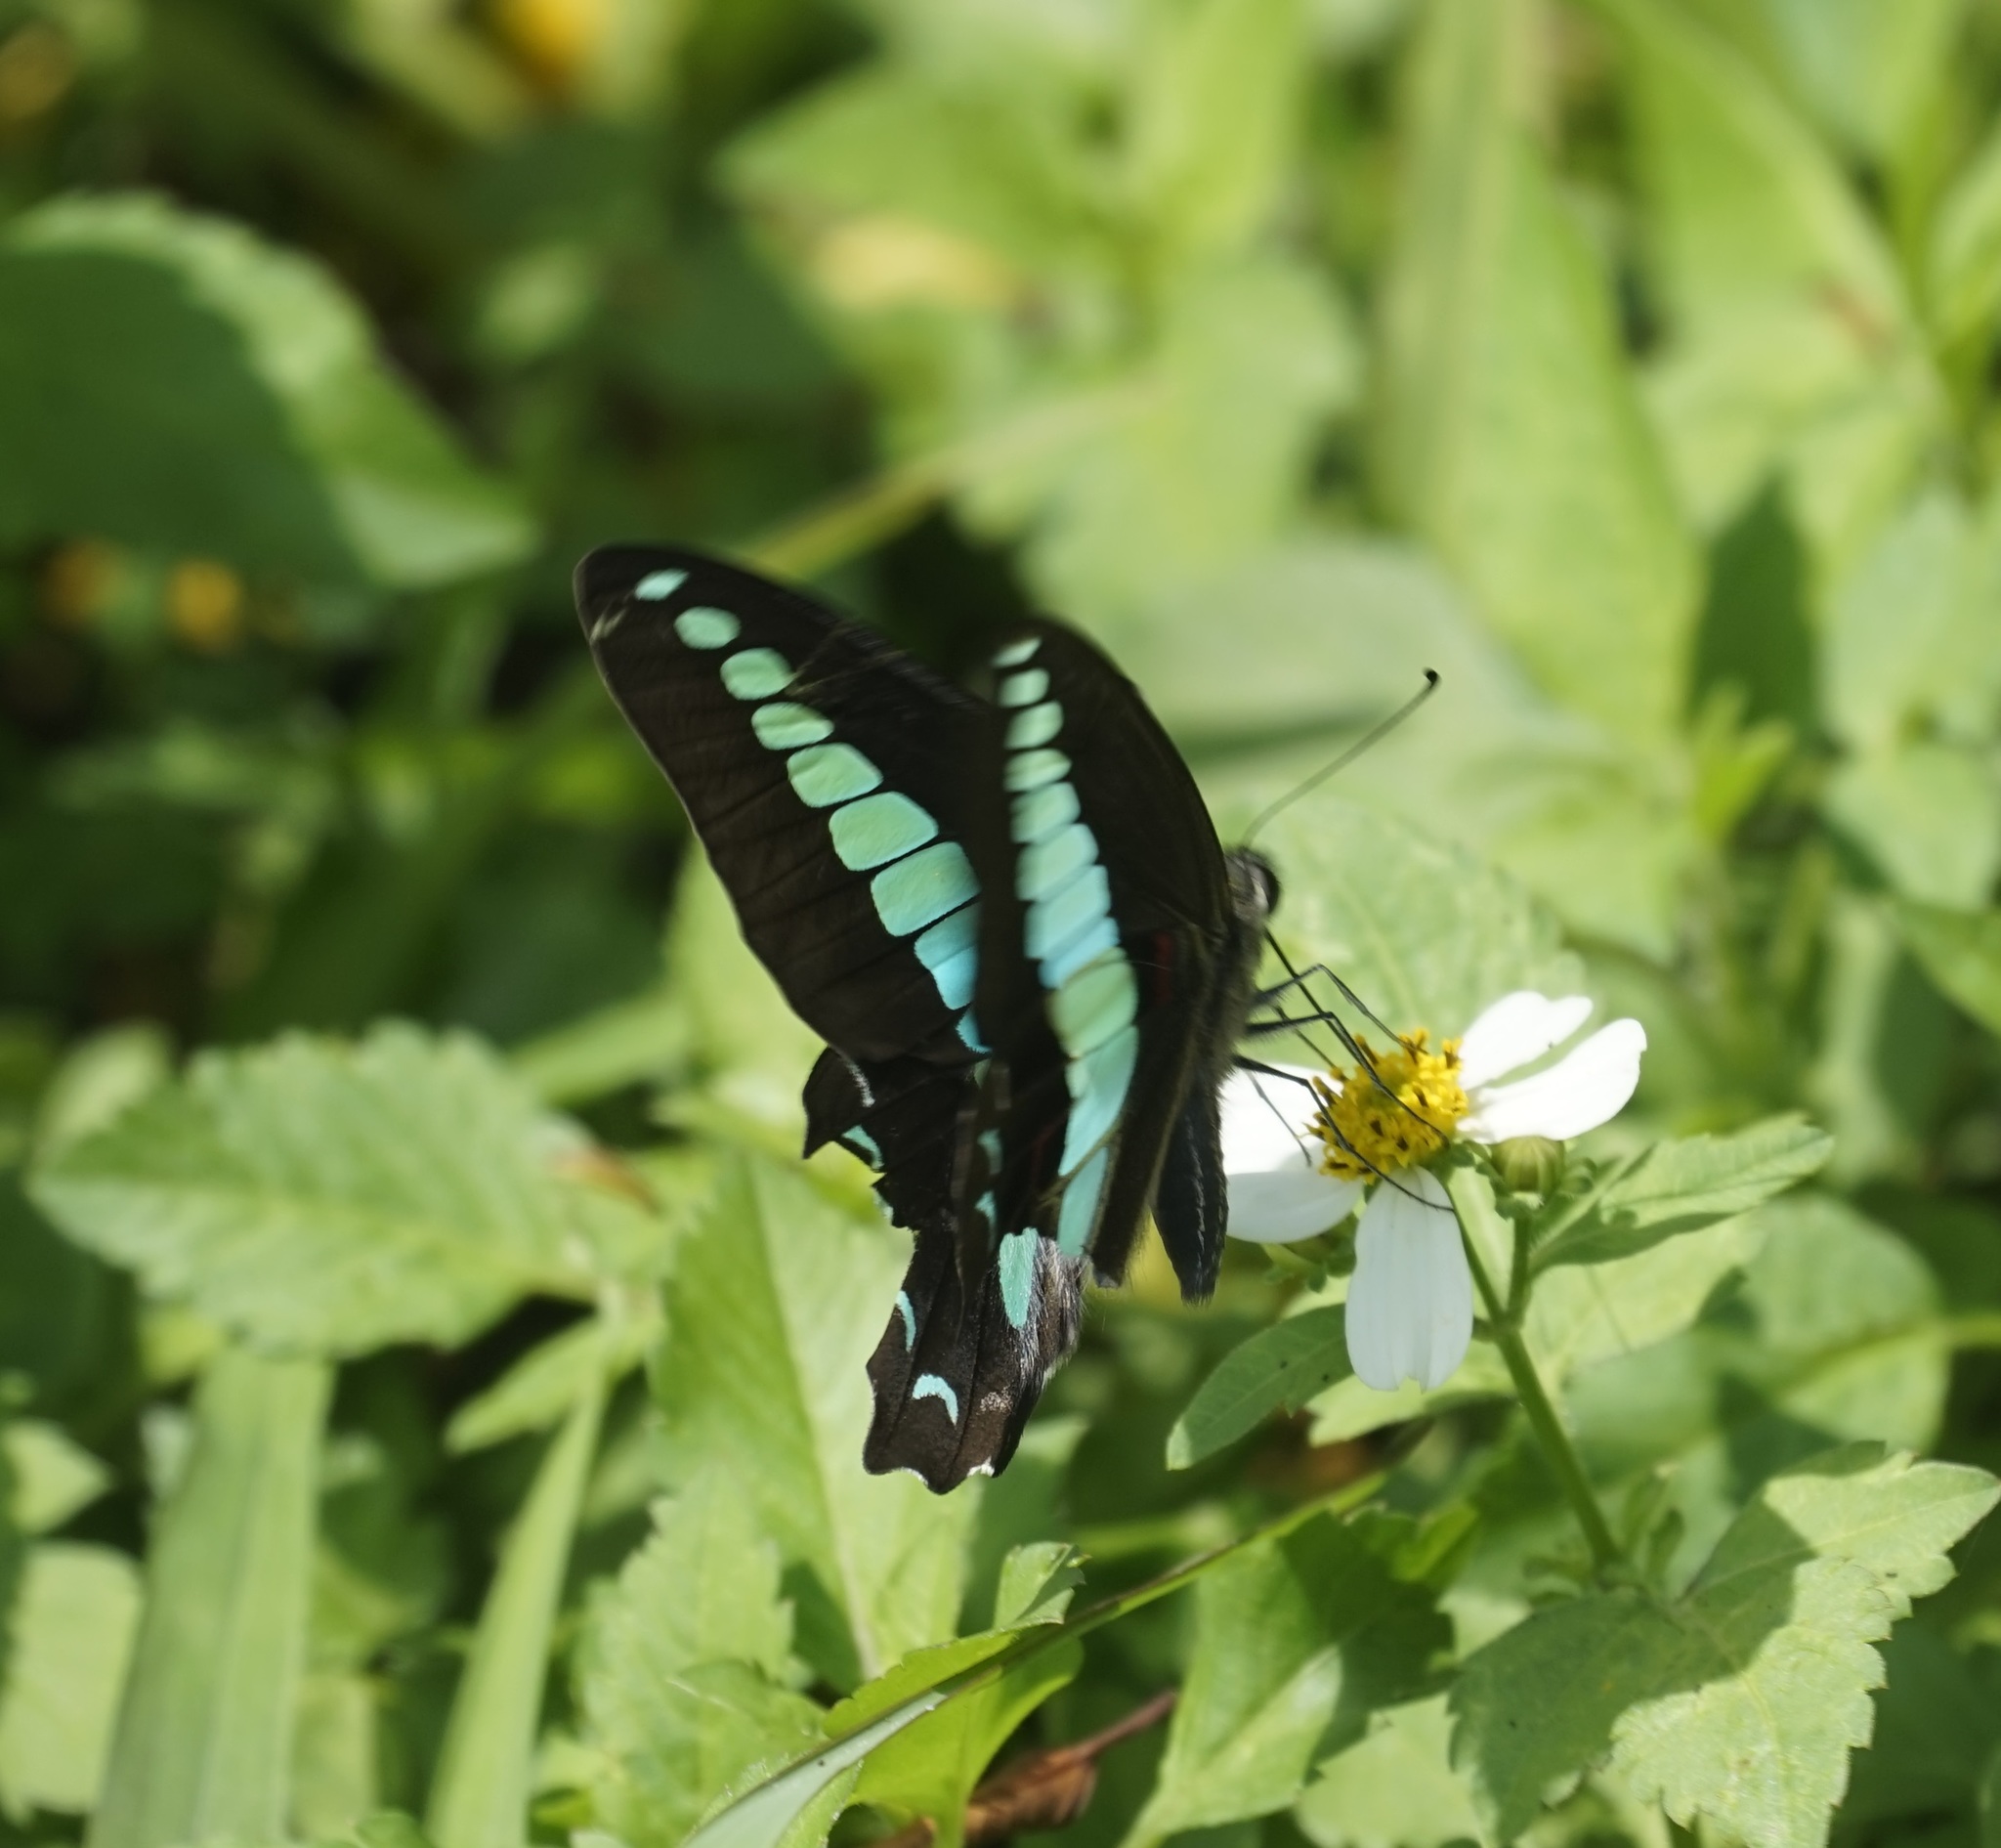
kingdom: Fungi
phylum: Ascomycota
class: Sordariomycetes
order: Microascales
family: Microascaceae
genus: Graphium
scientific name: Graphium sarpedon
